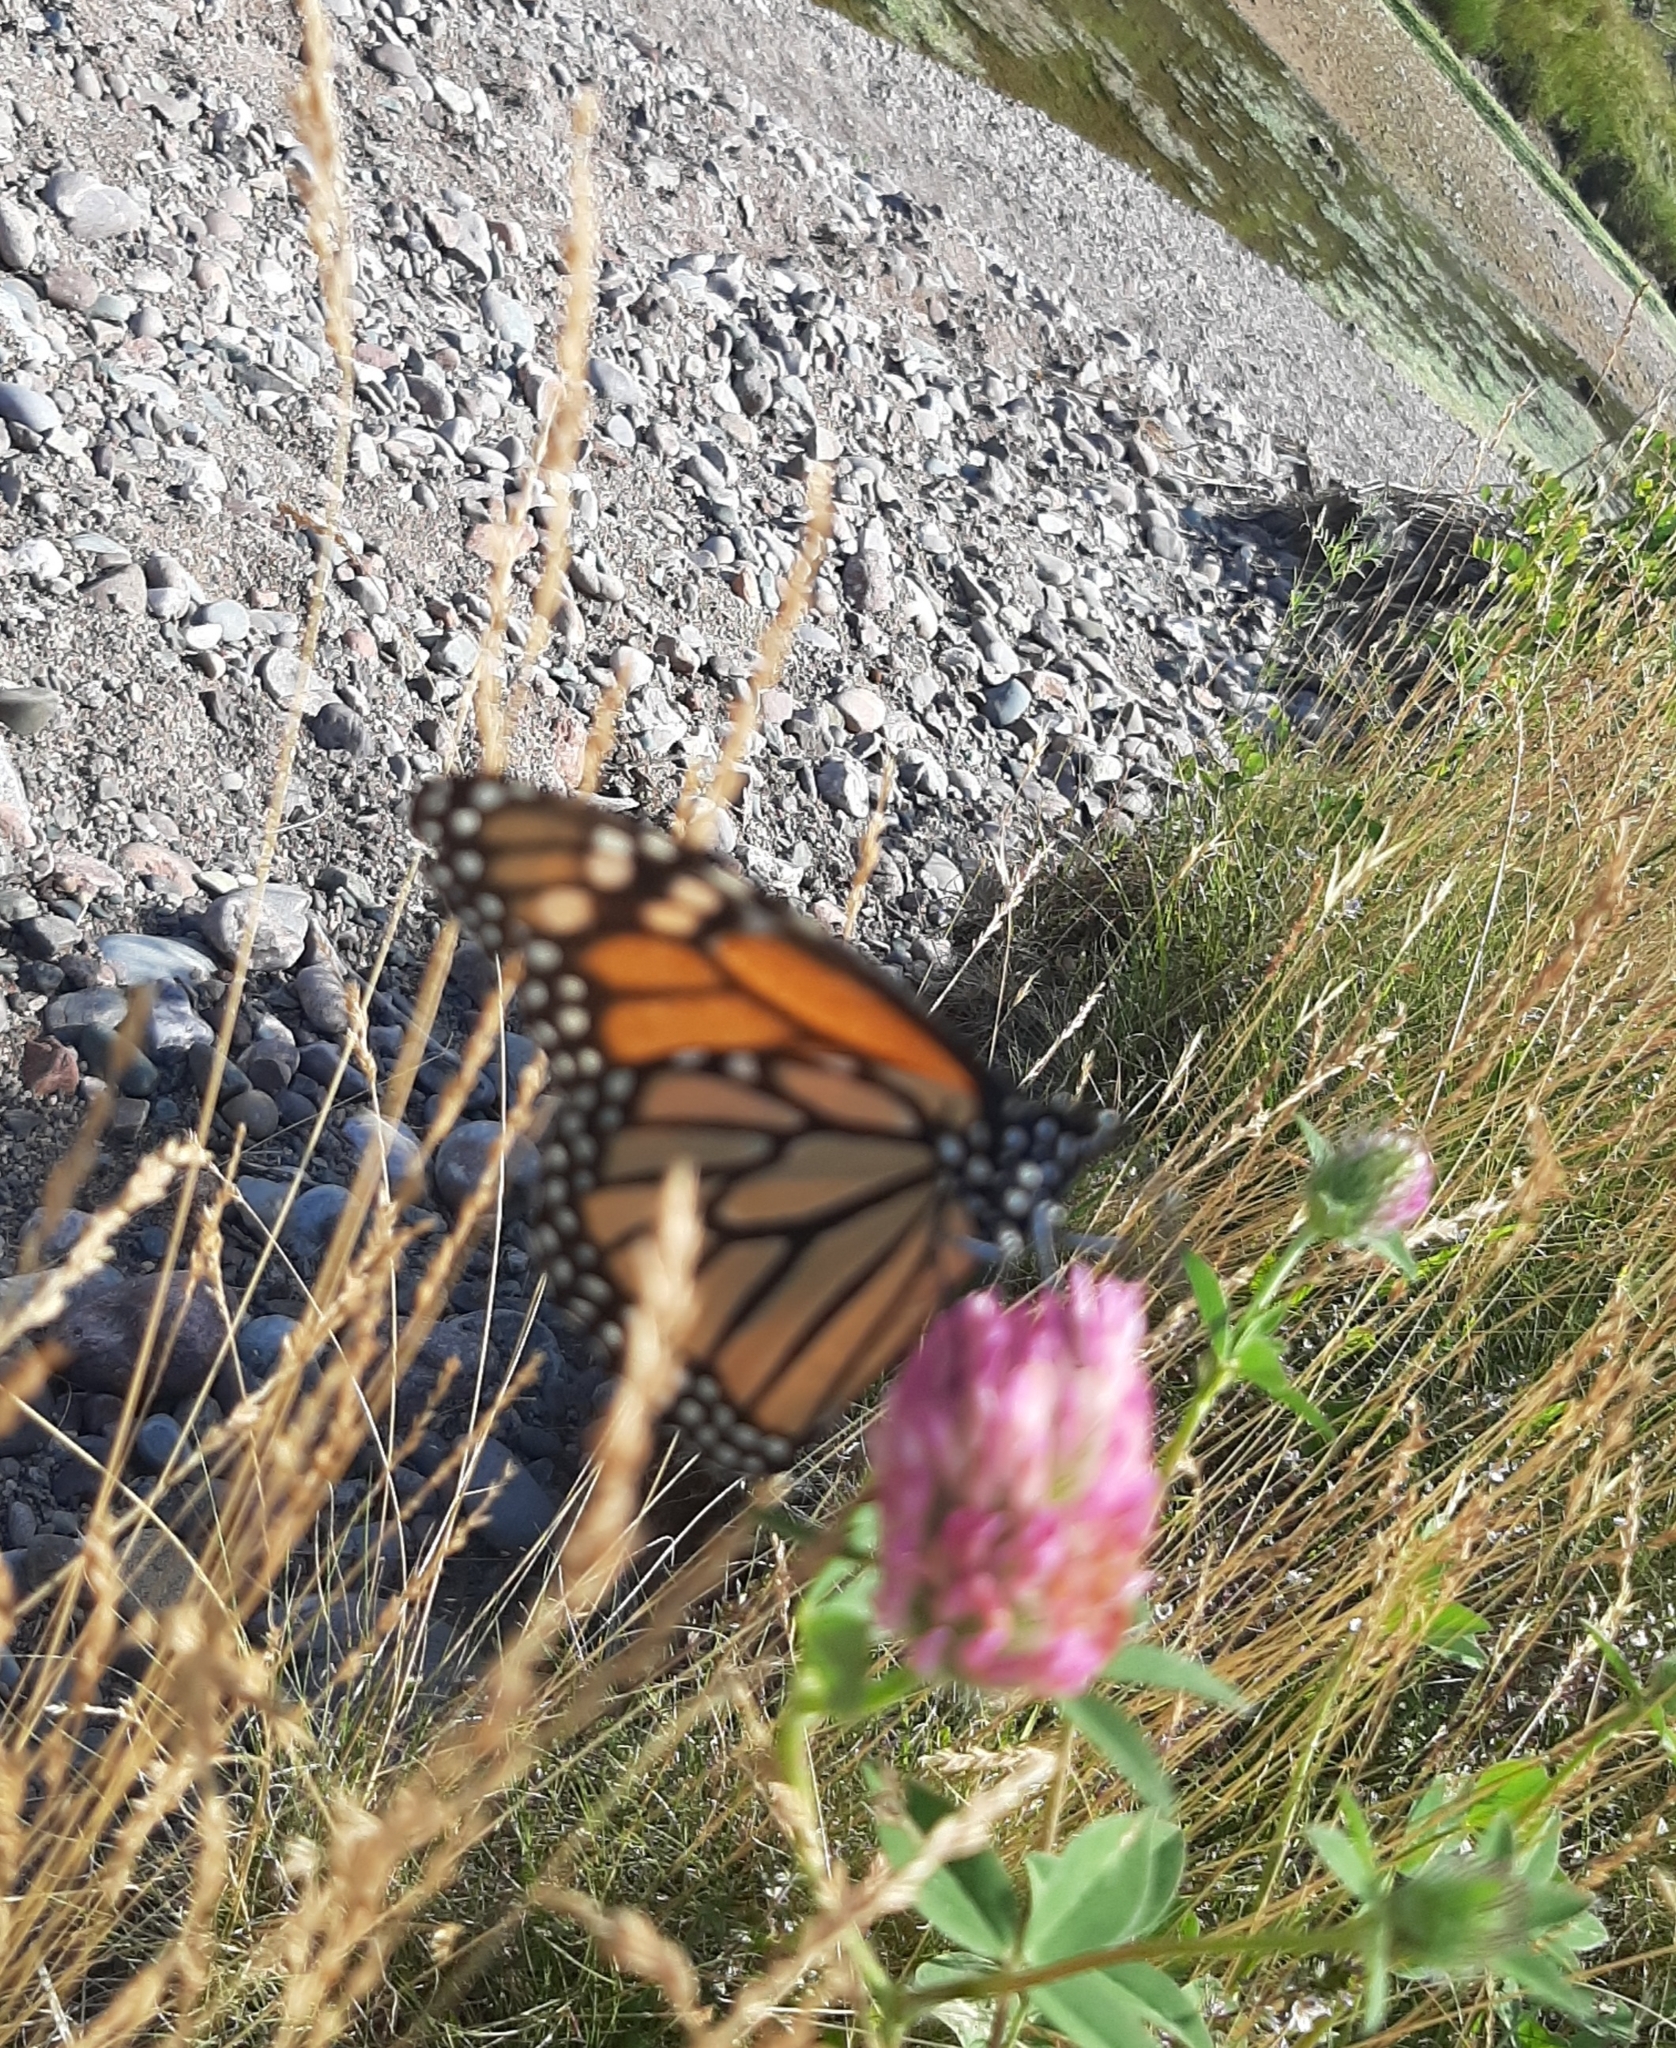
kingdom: Animalia
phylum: Arthropoda
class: Insecta
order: Lepidoptera
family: Nymphalidae
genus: Danaus
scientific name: Danaus plexippus
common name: Monarch
